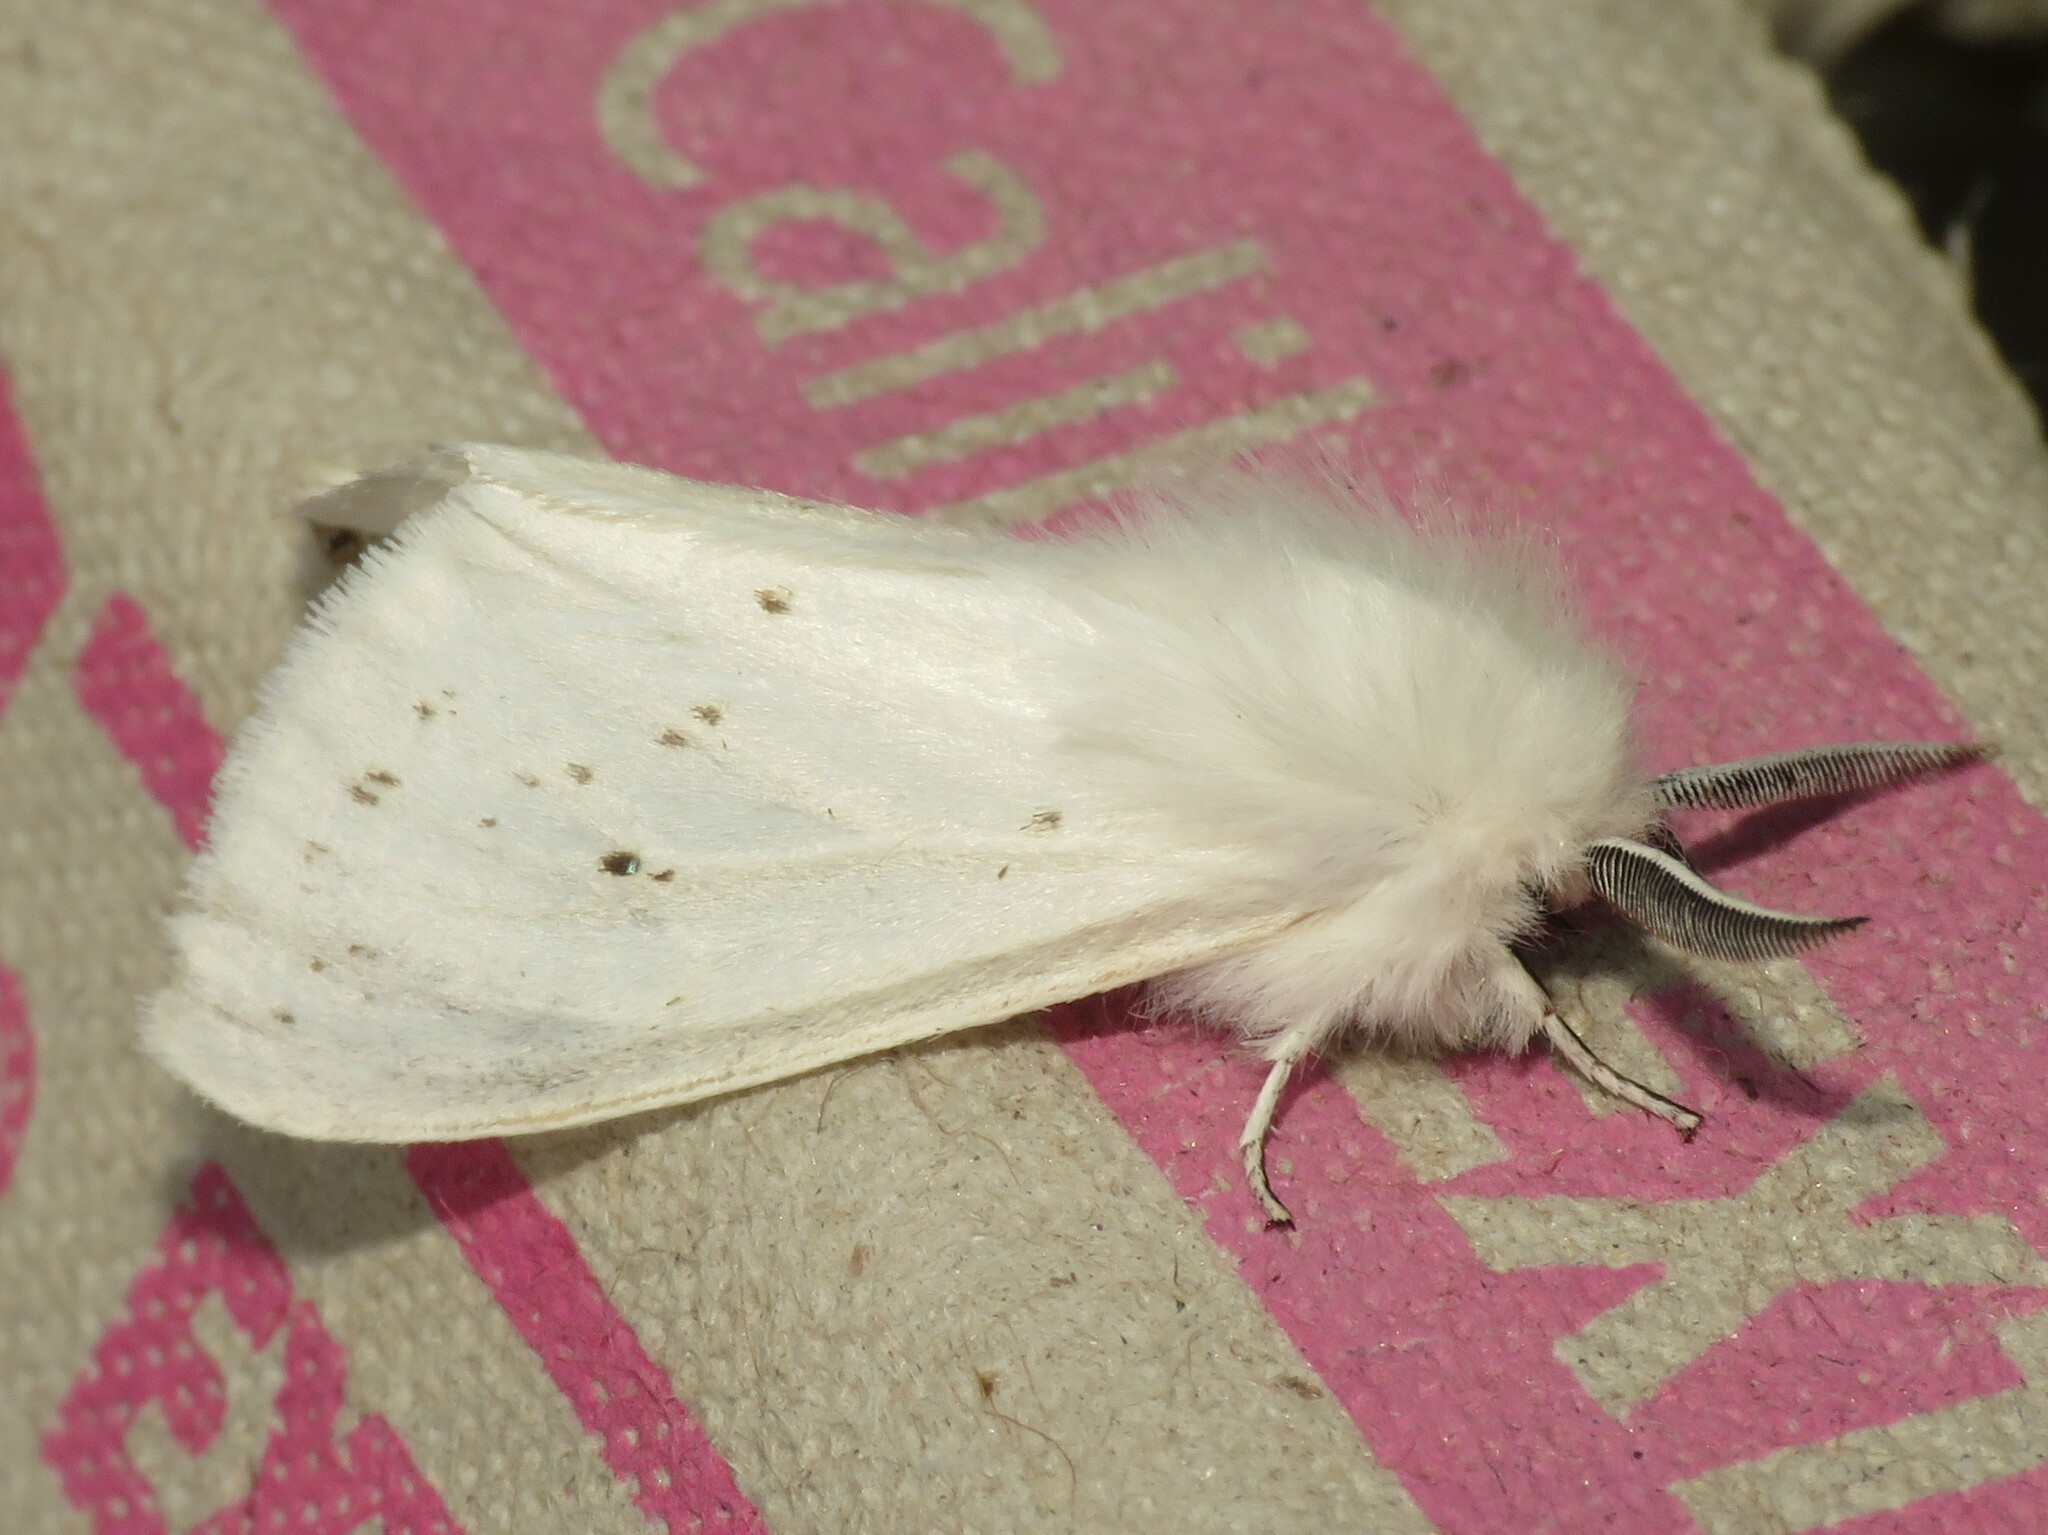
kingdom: Animalia
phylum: Arthropoda
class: Insecta
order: Lepidoptera
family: Erebidae
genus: Spilosoma
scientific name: Spilosoma congrua
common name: Agreeable tiger moth
